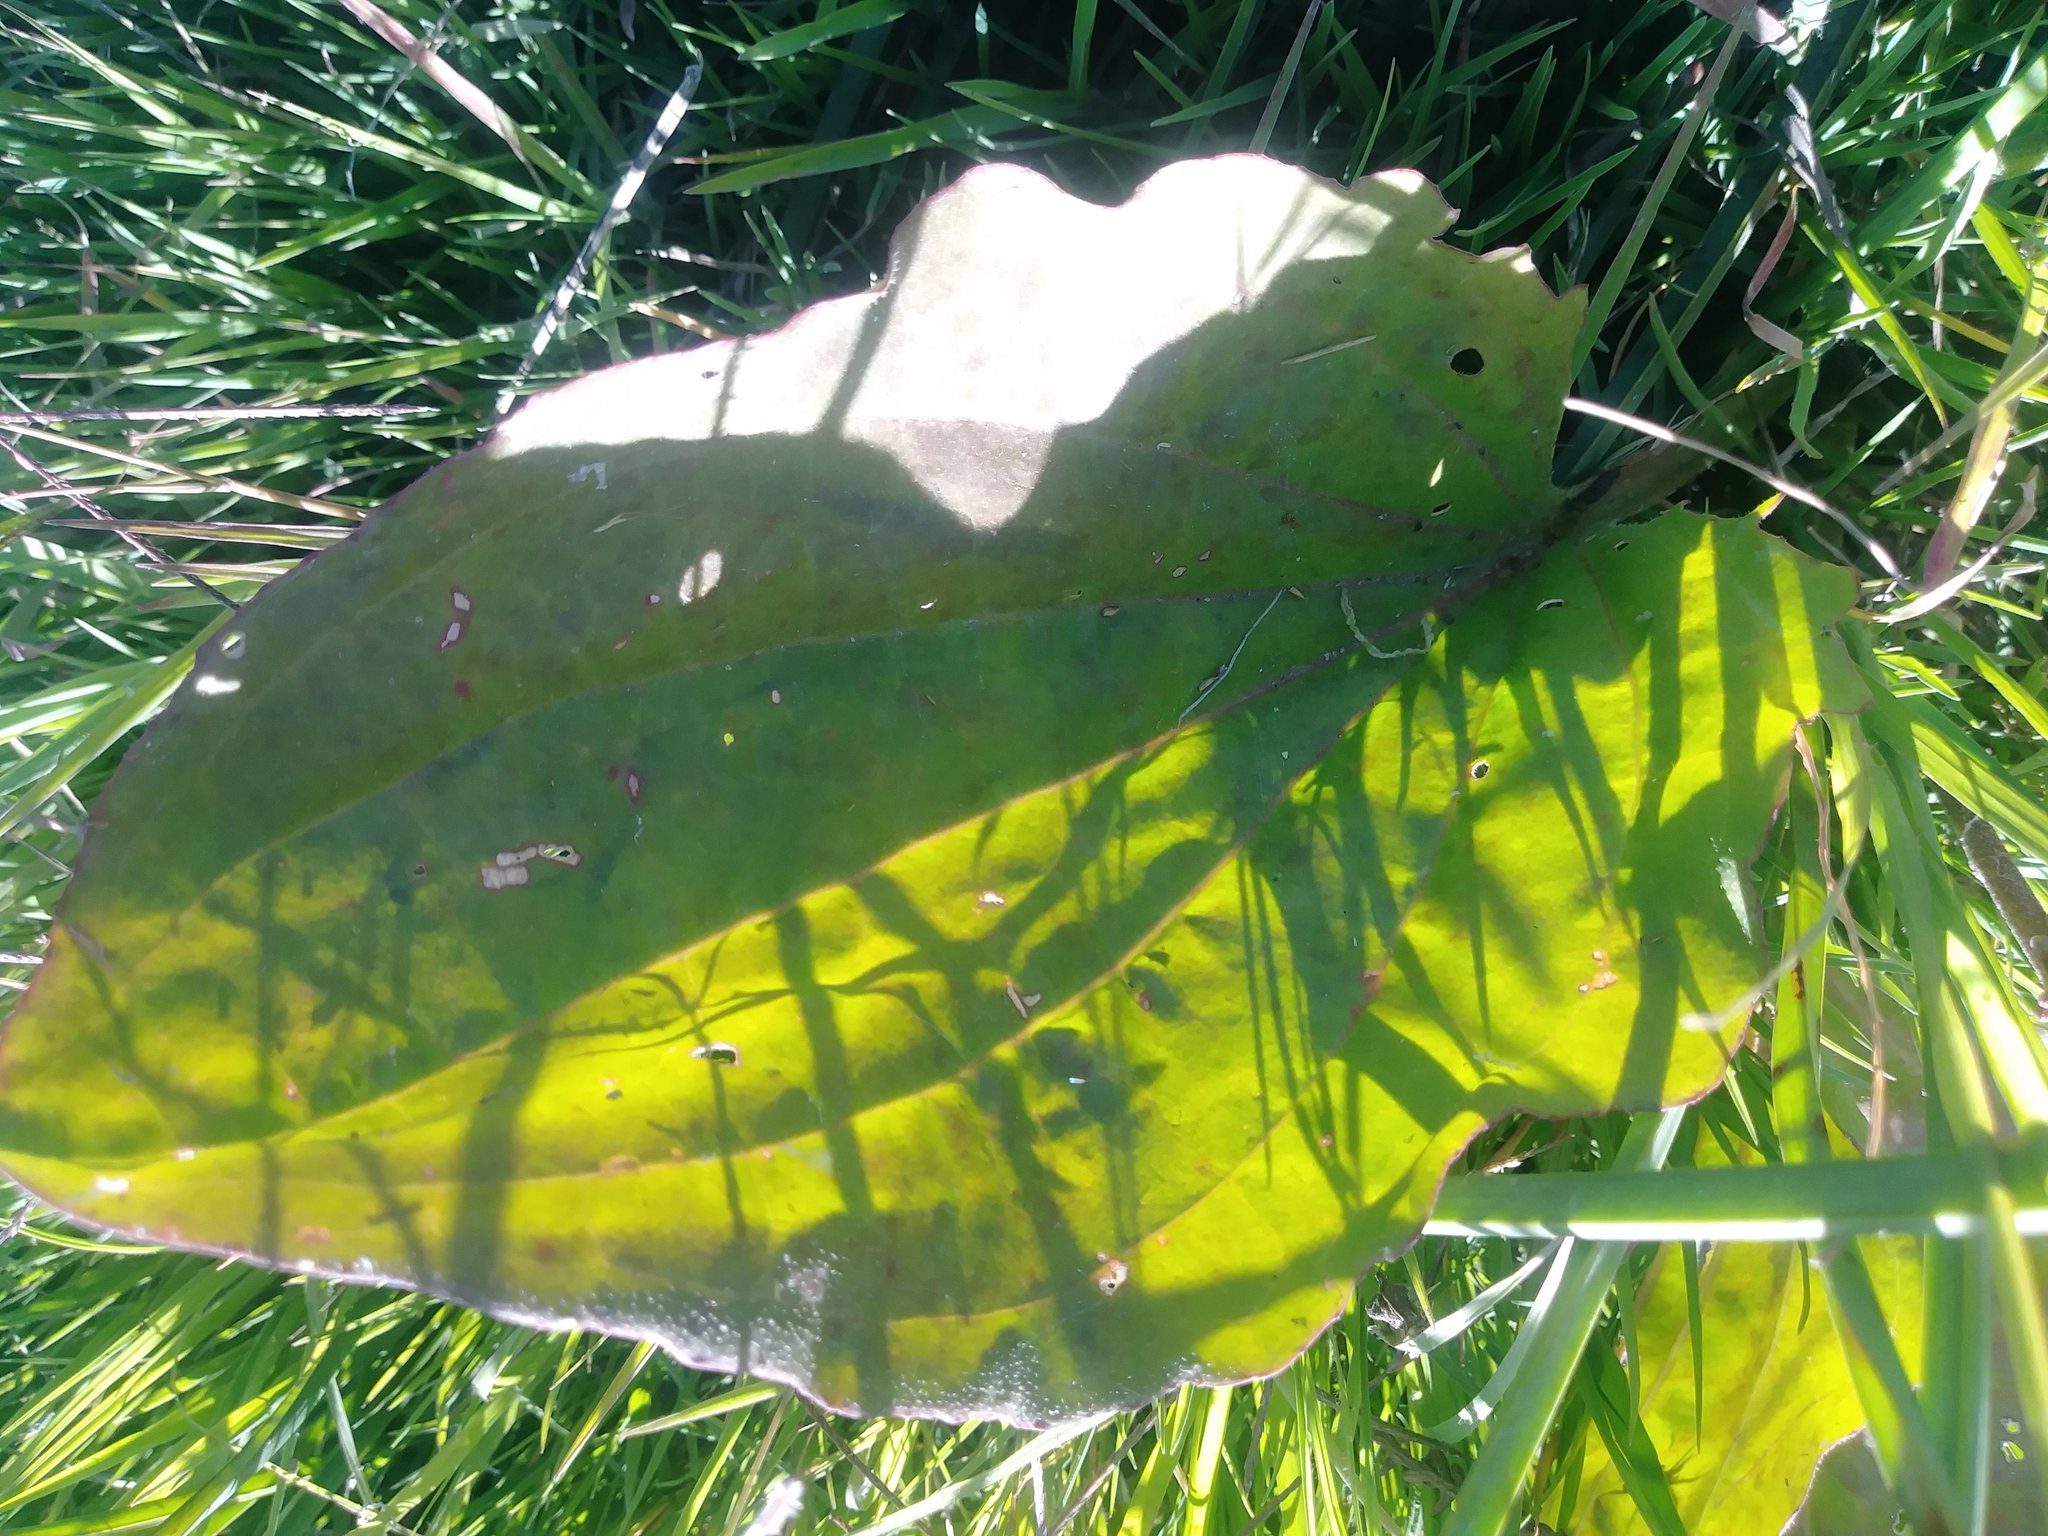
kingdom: Plantae
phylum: Tracheophyta
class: Magnoliopsida
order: Lamiales
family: Plantaginaceae
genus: Plantago
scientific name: Plantago major
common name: Common plantain
